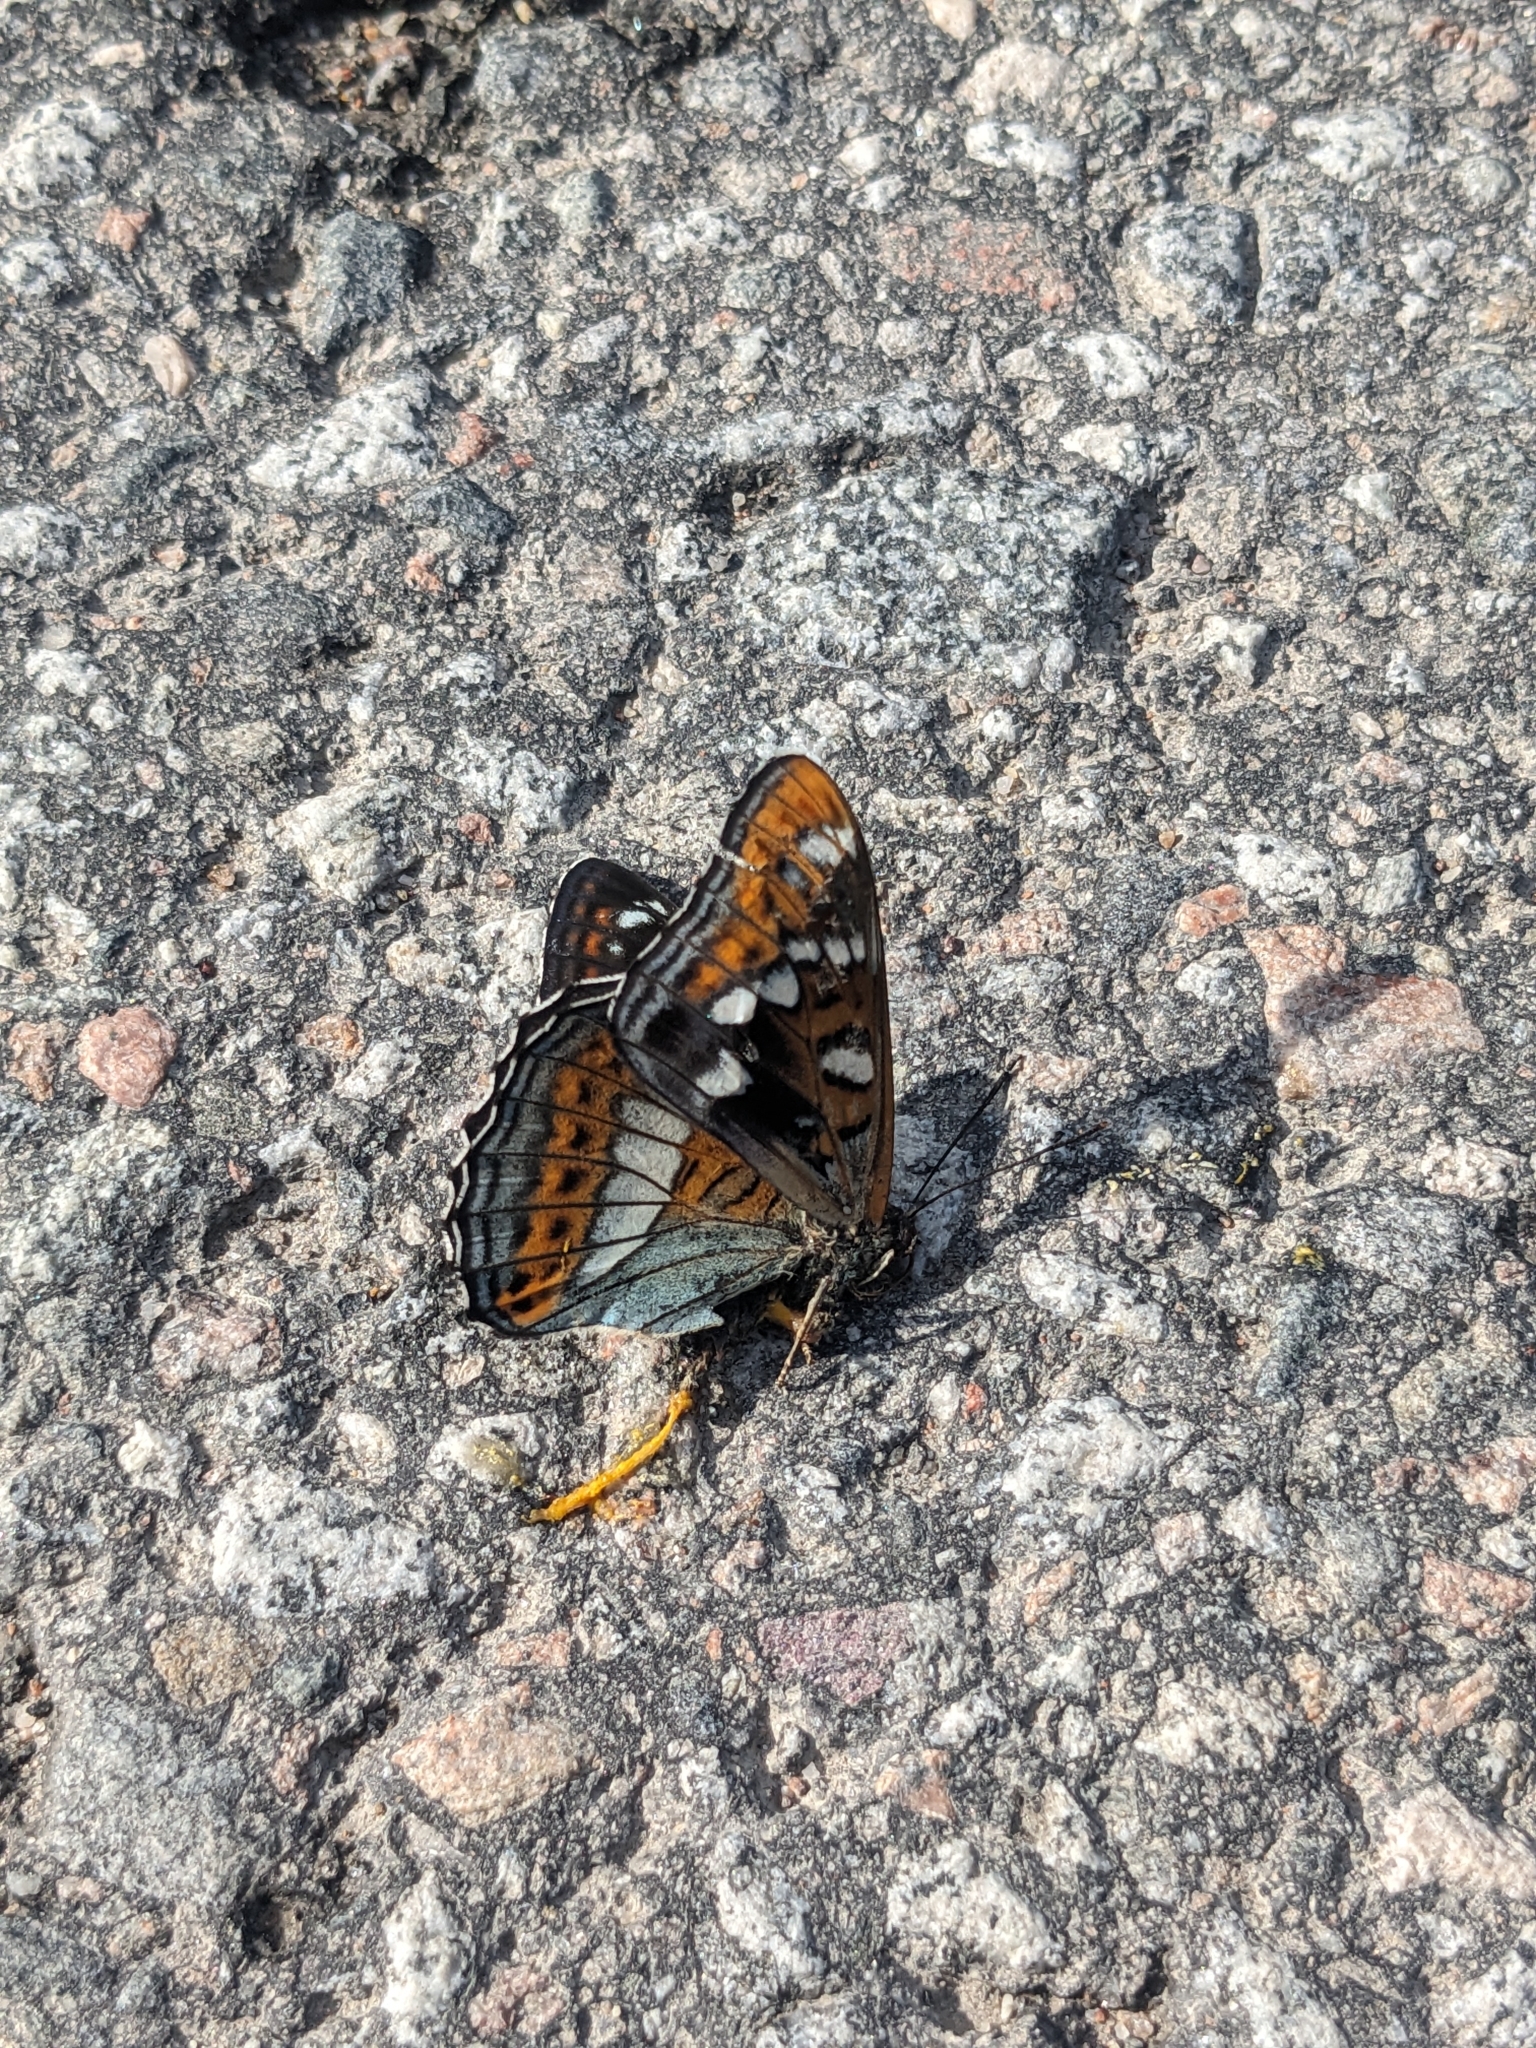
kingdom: Animalia
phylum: Arthropoda
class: Insecta
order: Lepidoptera
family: Nymphalidae
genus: Limenitis
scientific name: Limenitis populi
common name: Poplar admiral
